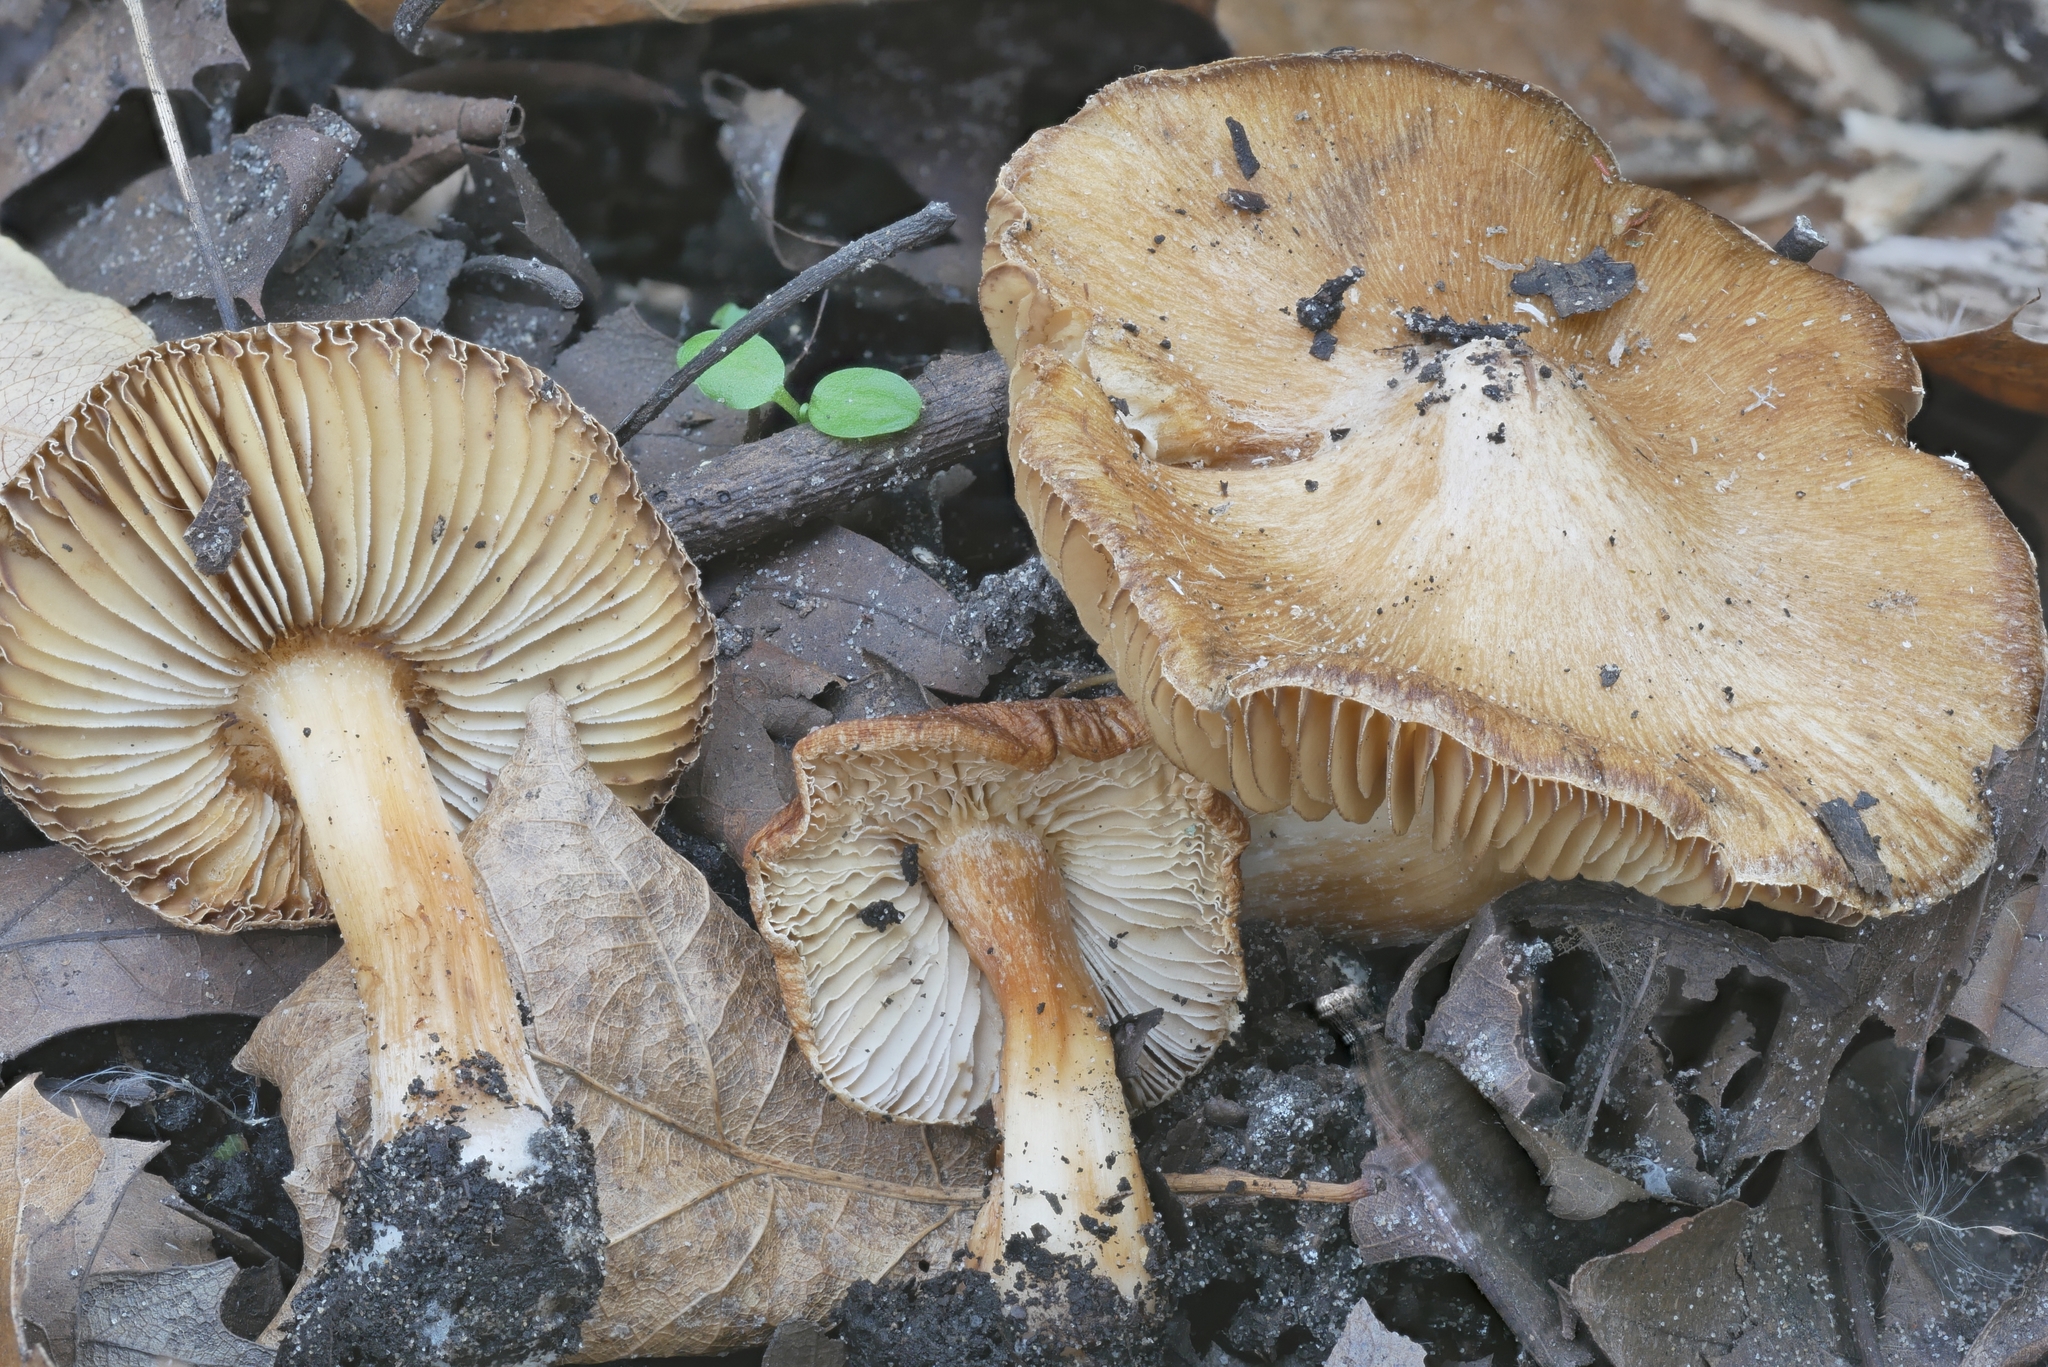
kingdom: Fungi
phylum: Basidiomycota
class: Agaricomycetes
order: Agaricales
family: Inocybaceae
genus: Inosperma
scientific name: Inosperma lanatodiscum
